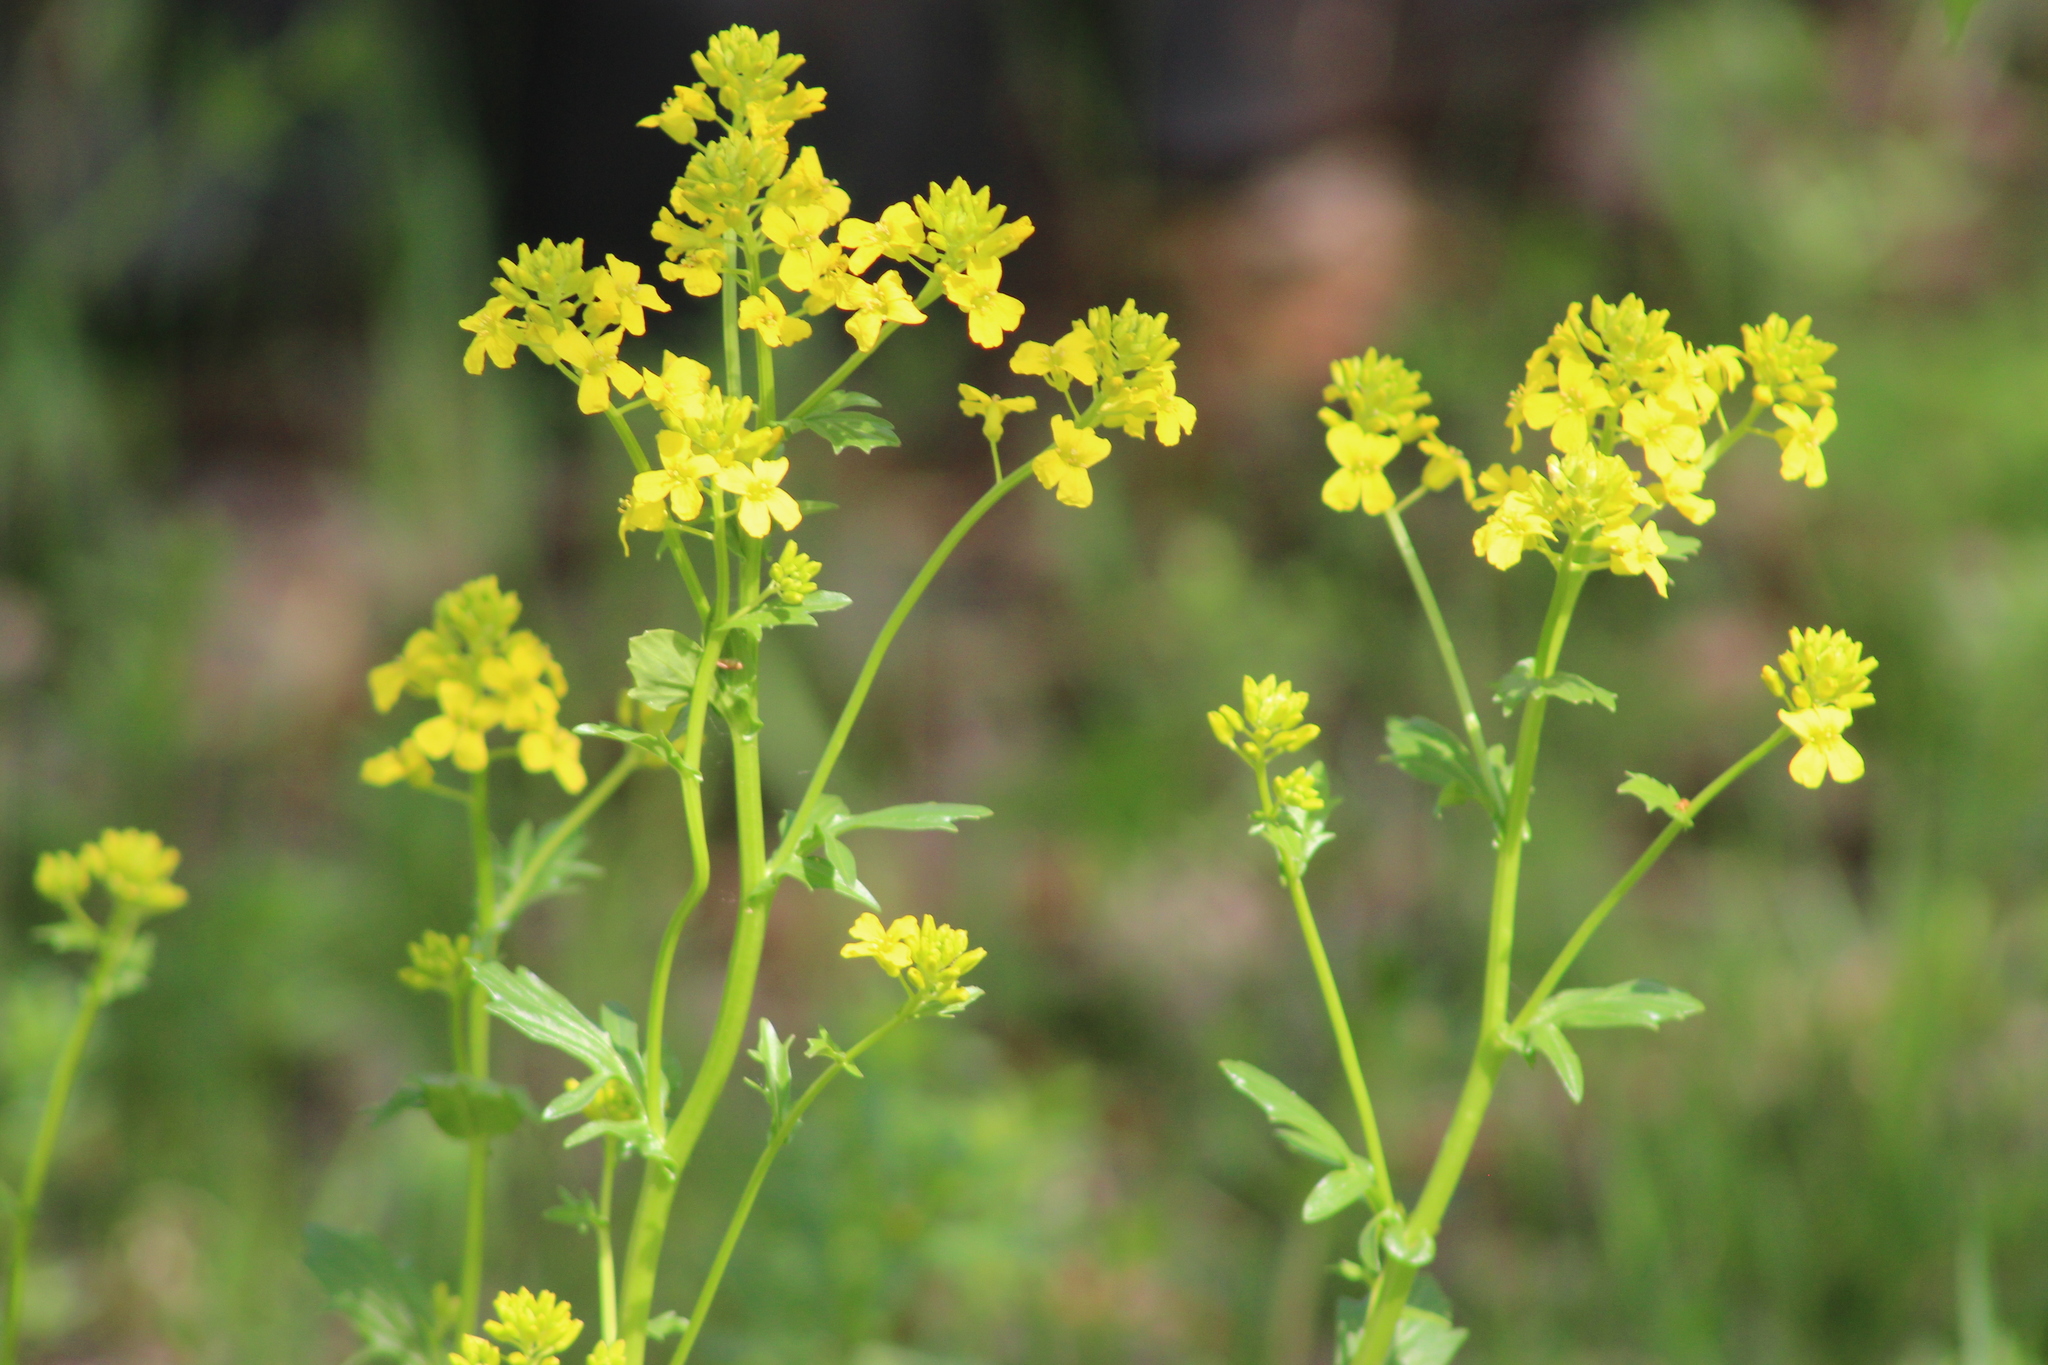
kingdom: Plantae
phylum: Tracheophyta
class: Magnoliopsida
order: Brassicales
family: Brassicaceae
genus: Barbarea
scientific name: Barbarea vulgaris
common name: Cressy-greens
